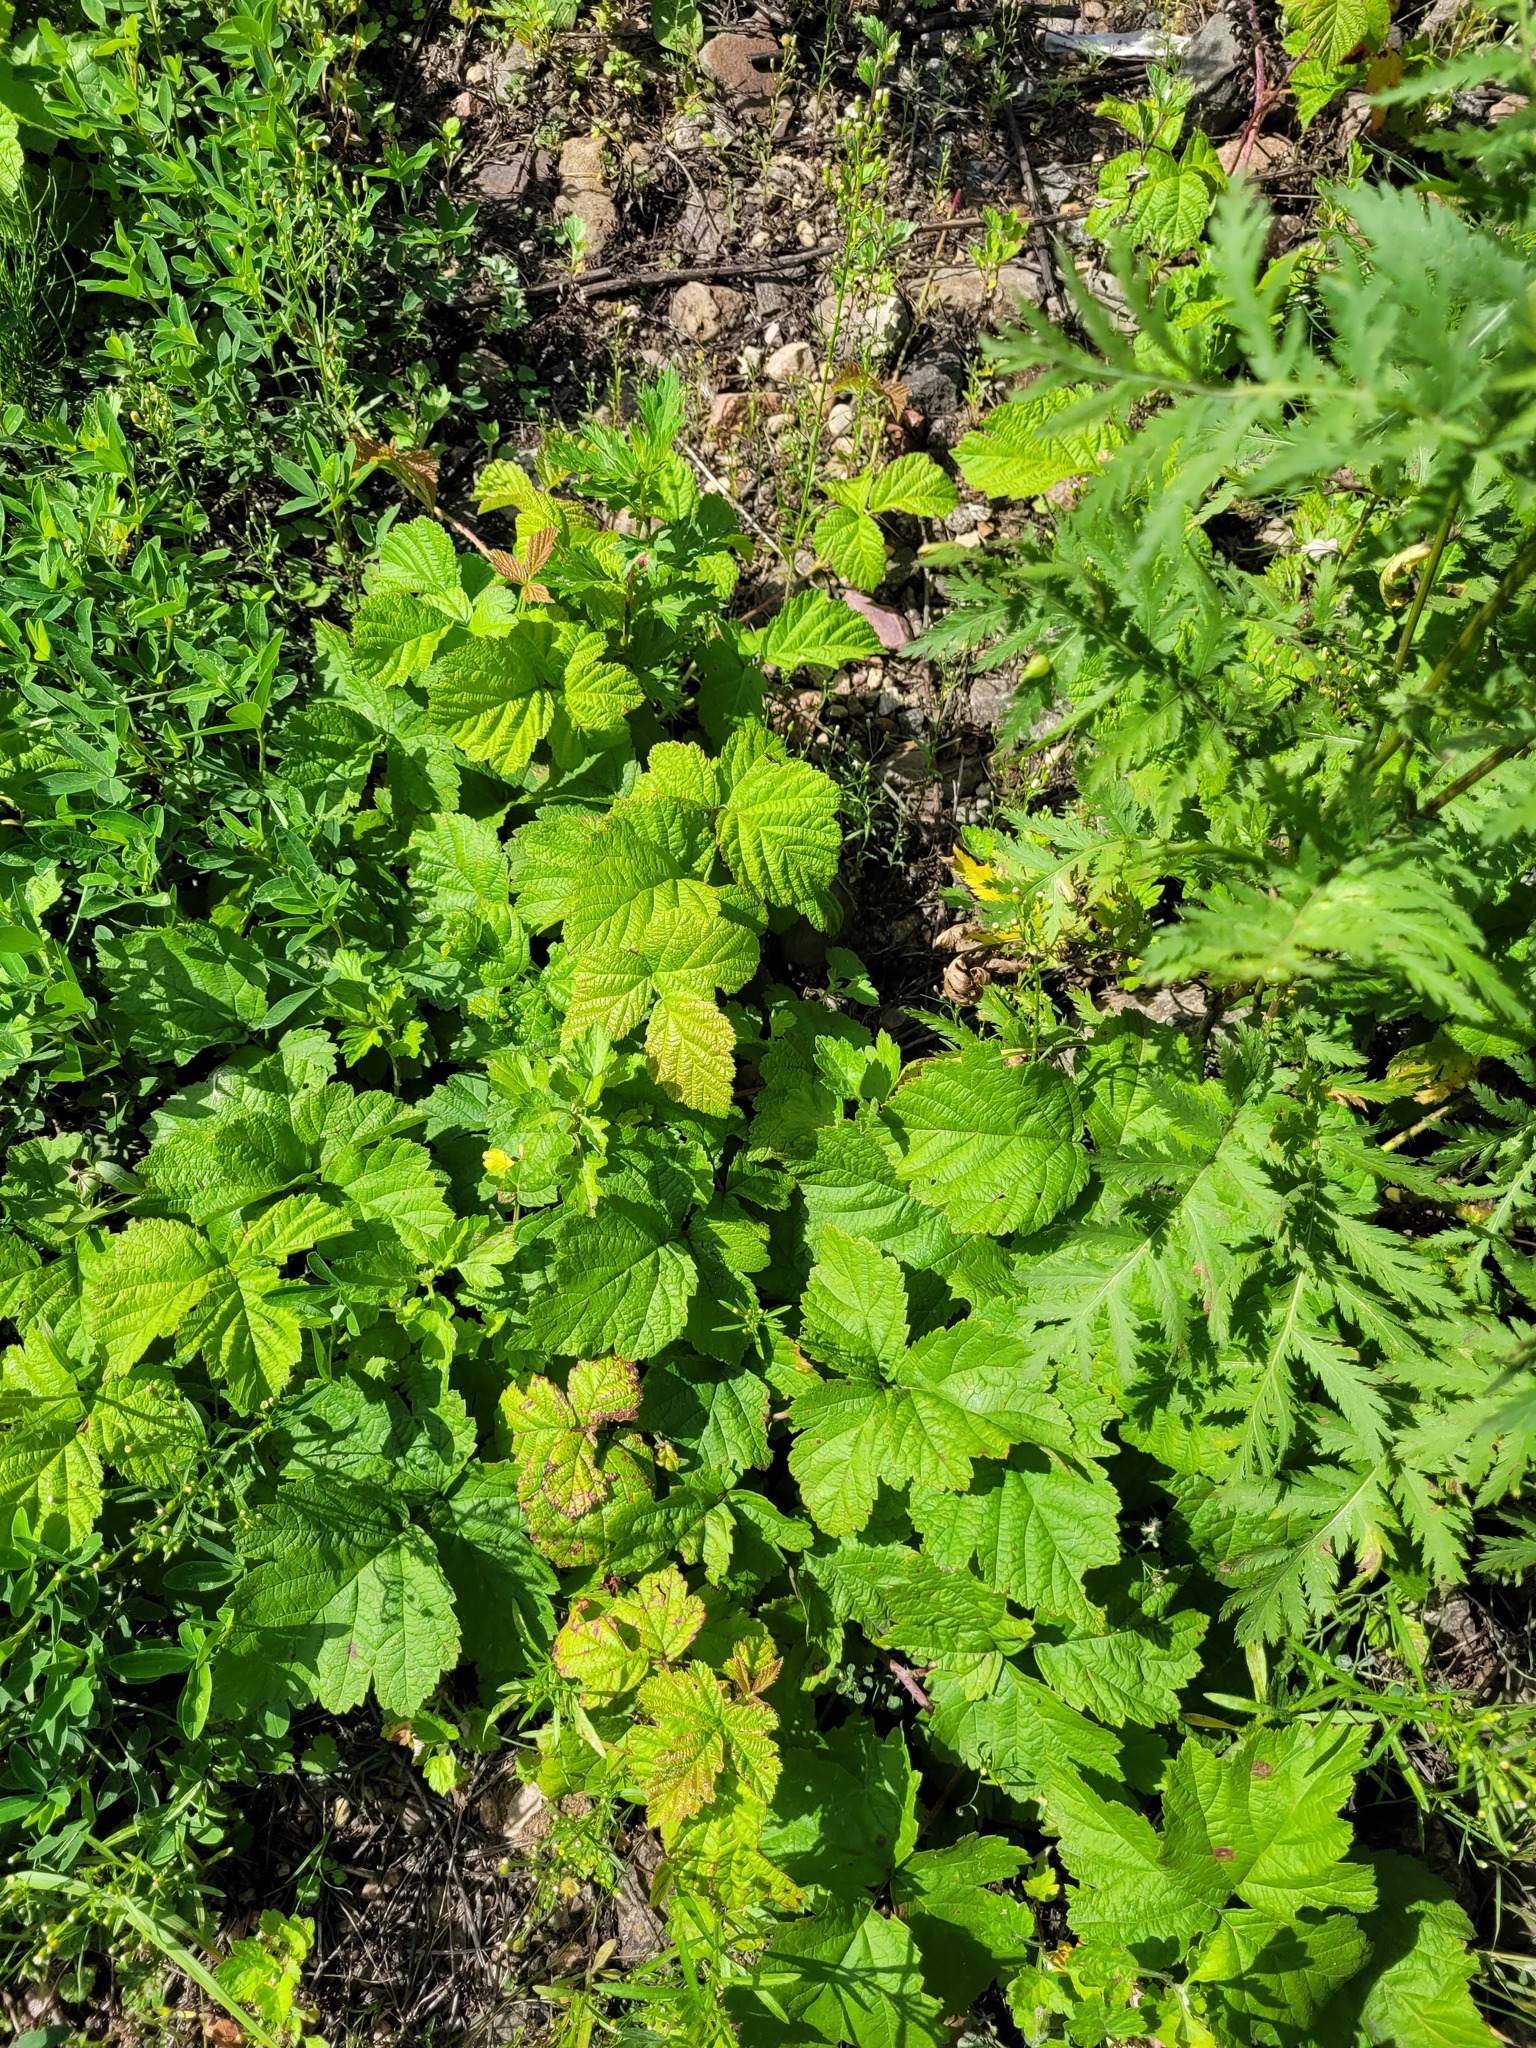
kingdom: Plantae
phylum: Tracheophyta
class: Magnoliopsida
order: Rosales
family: Rosaceae
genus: Rubus
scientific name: Rubus caesius
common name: Dewberry
